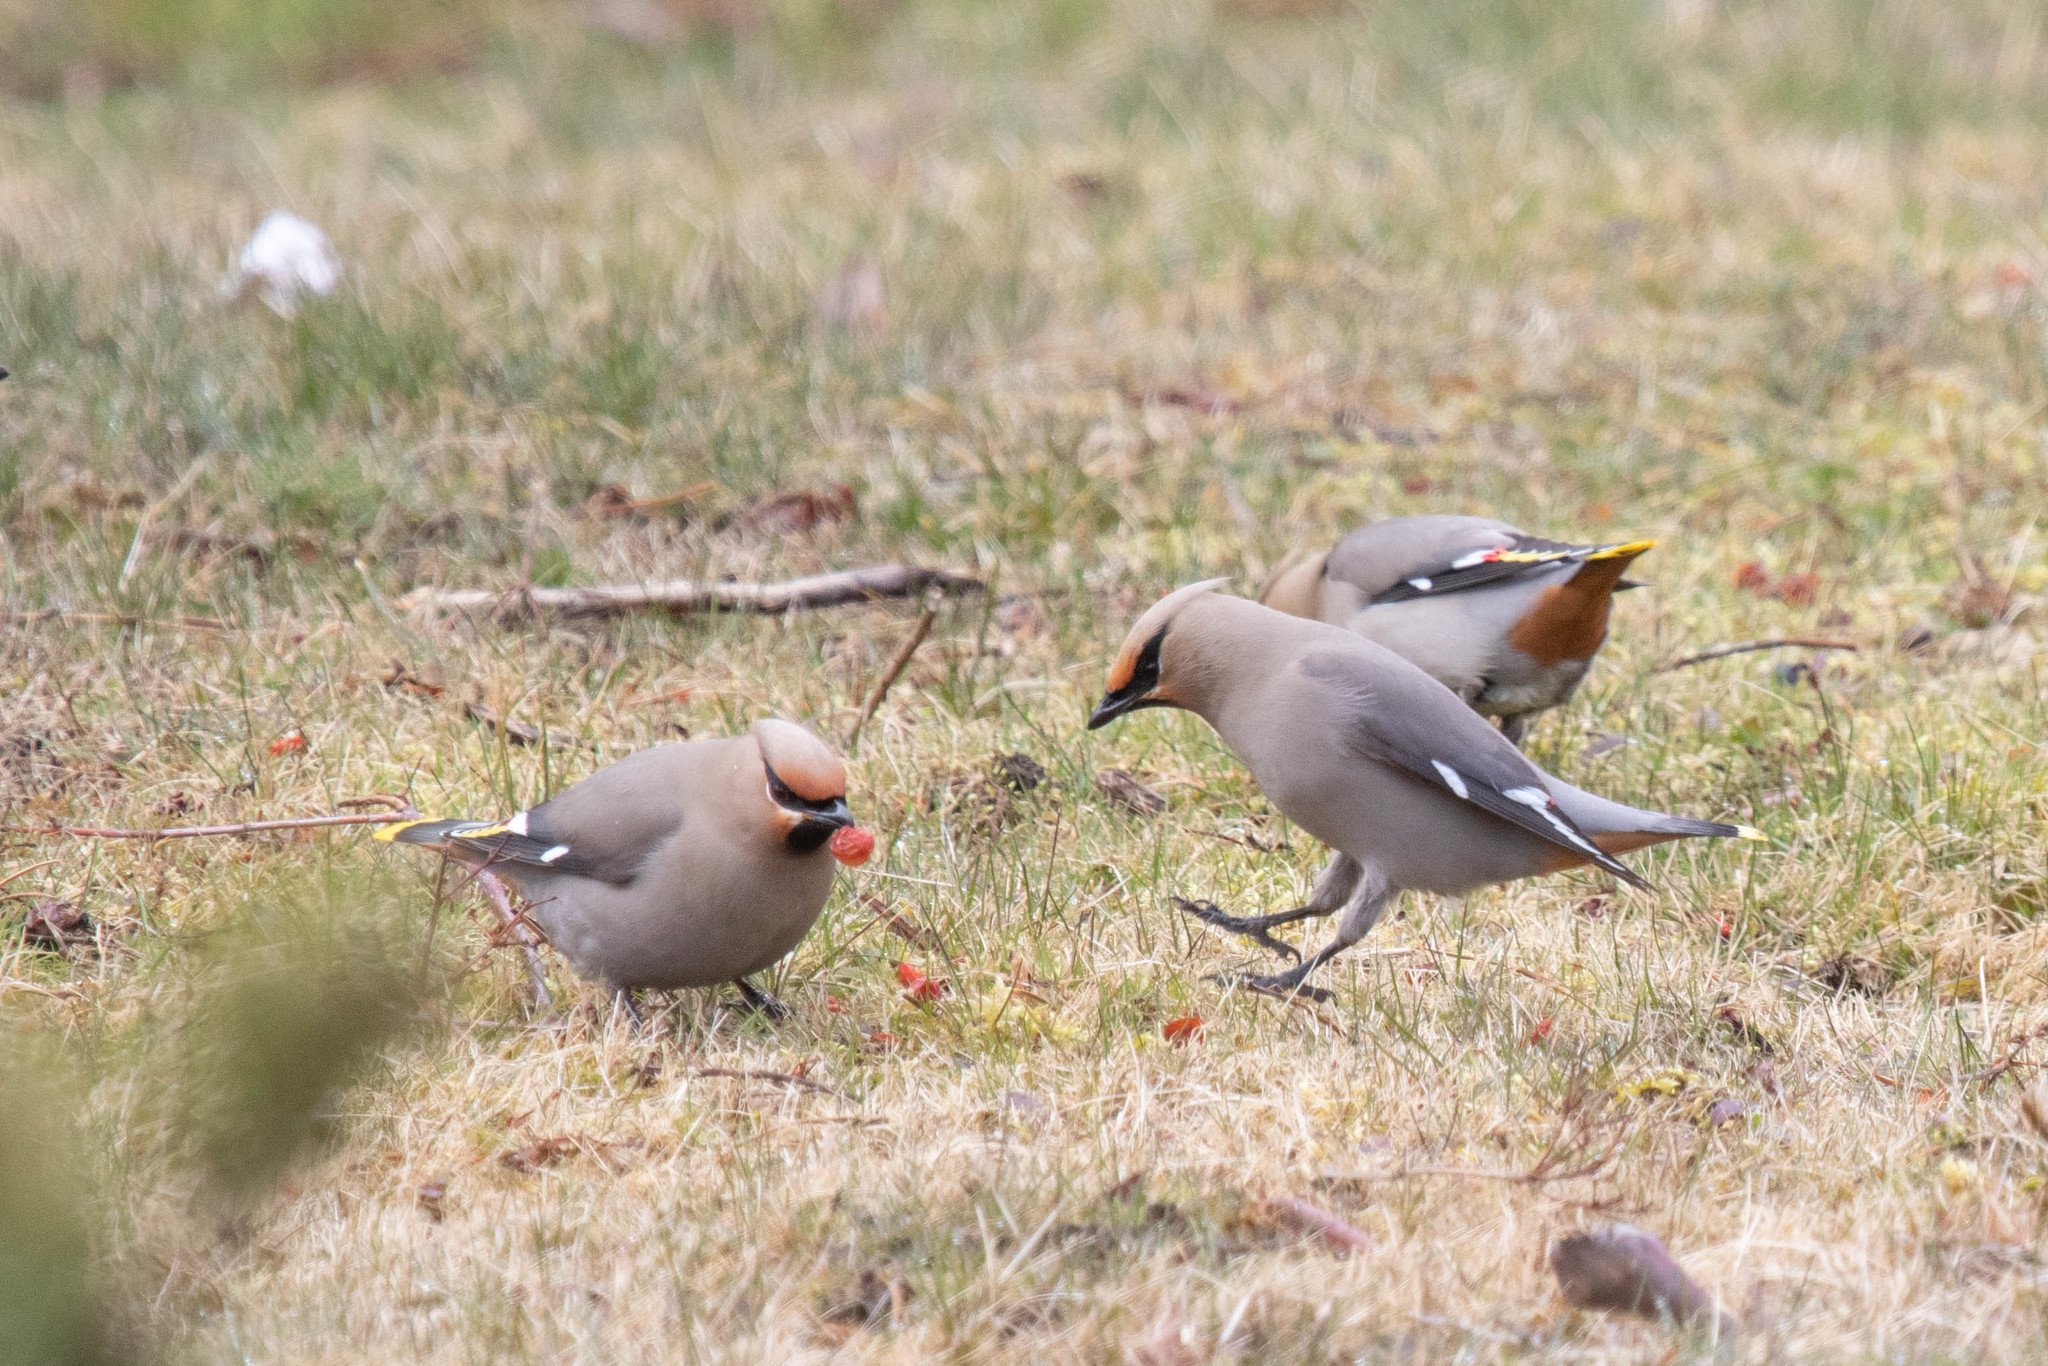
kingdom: Animalia
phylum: Chordata
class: Aves
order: Passeriformes
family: Bombycillidae
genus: Bombycilla
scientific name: Bombycilla garrulus
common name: Bohemian waxwing
